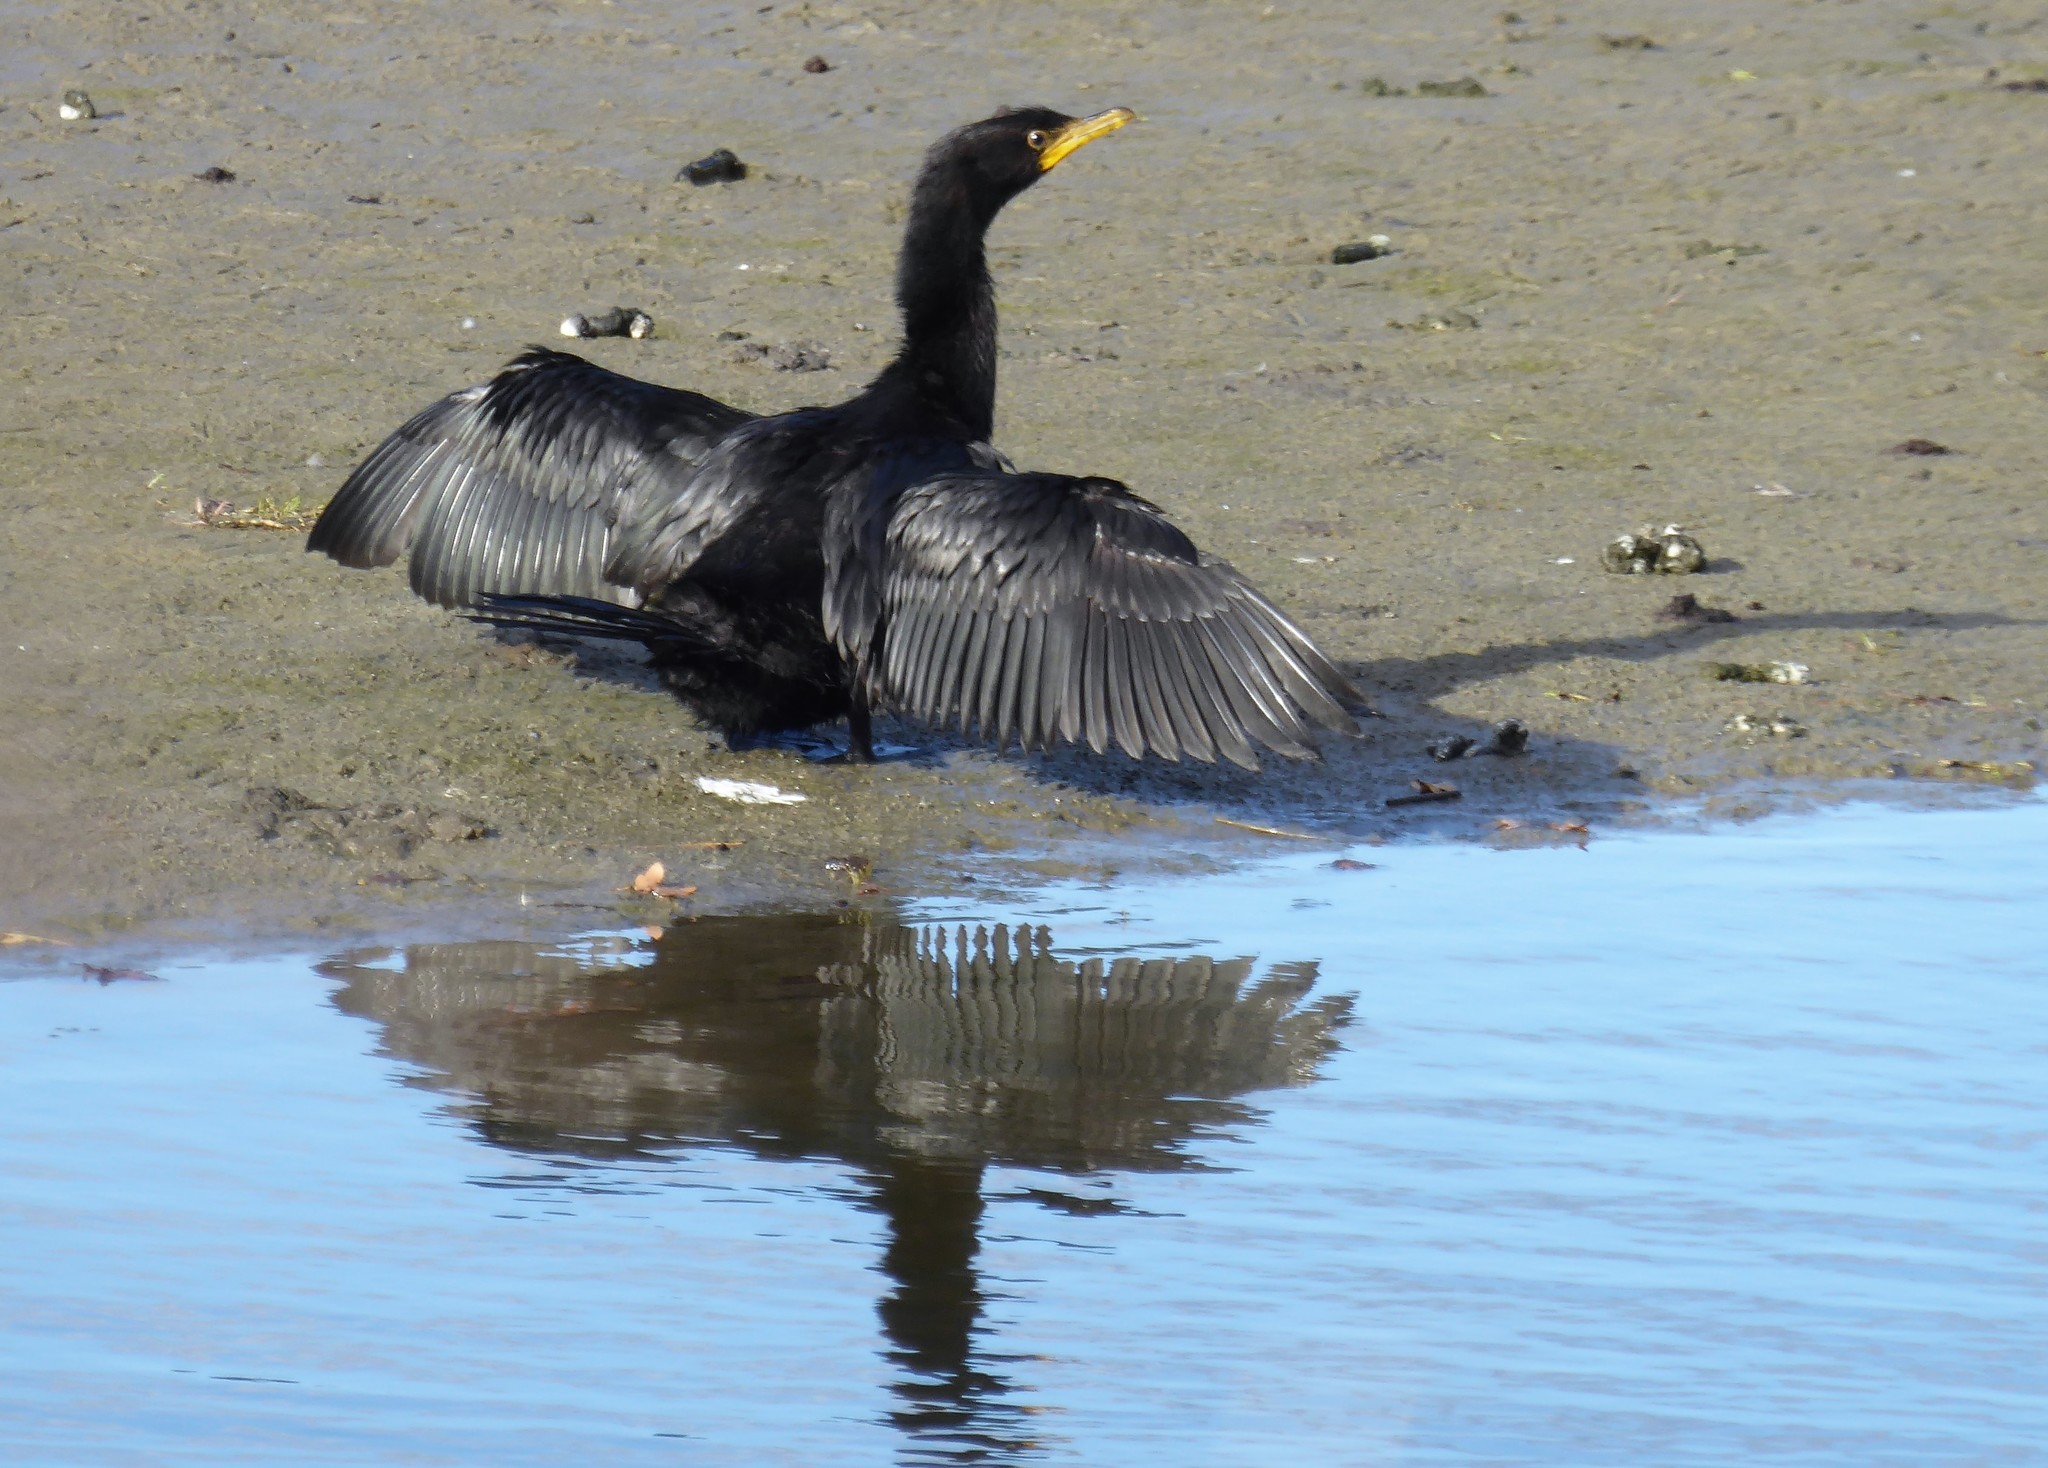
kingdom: Animalia
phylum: Chordata
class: Aves
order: Suliformes
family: Phalacrocoracidae
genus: Microcarbo
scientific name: Microcarbo melanoleucos
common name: Little pied cormorant
